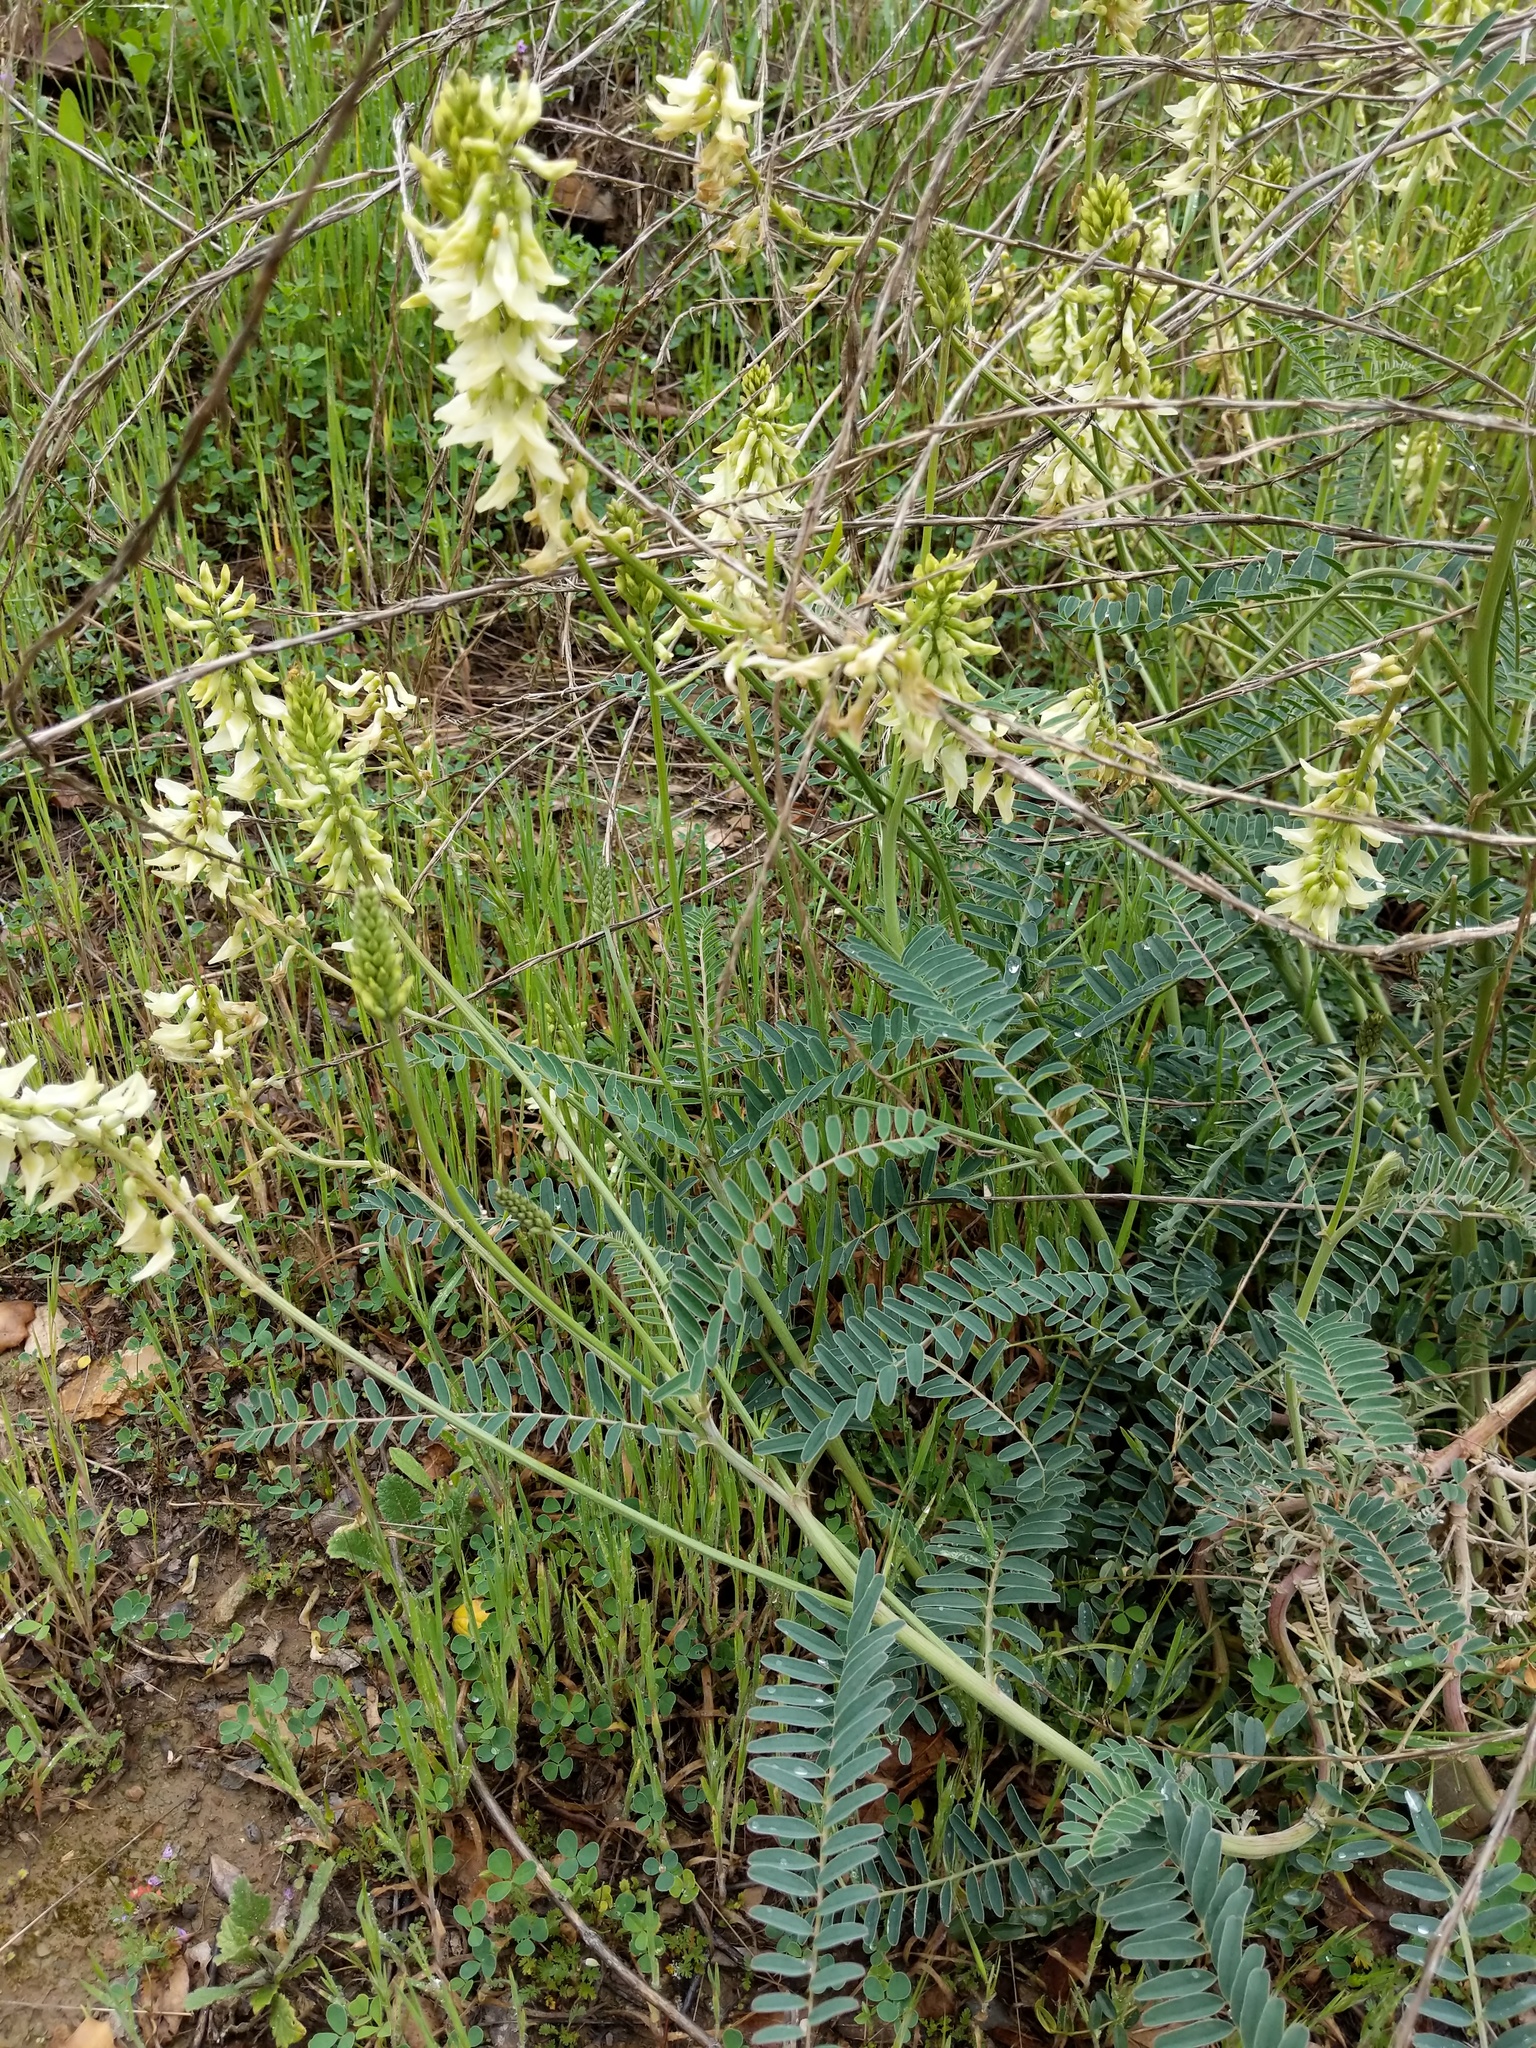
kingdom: Plantae
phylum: Tracheophyta
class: Magnoliopsida
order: Fabales
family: Fabaceae
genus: Astragalus
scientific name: Astragalus trichopodus
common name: Santa barbara milk-vetch
